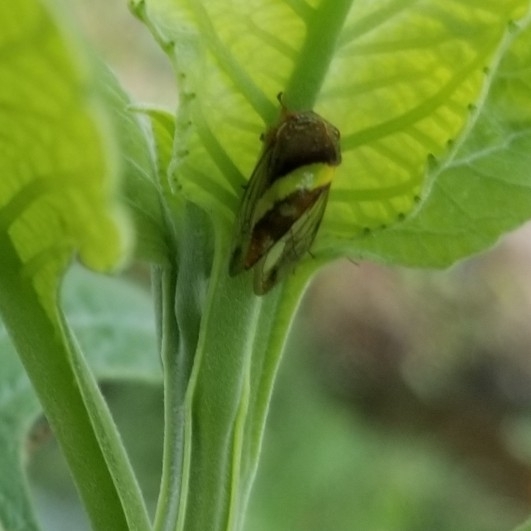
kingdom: Animalia
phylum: Arthropoda
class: Insecta
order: Hemiptera
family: Membracidae
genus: Smilia
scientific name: Smilia fasciata
